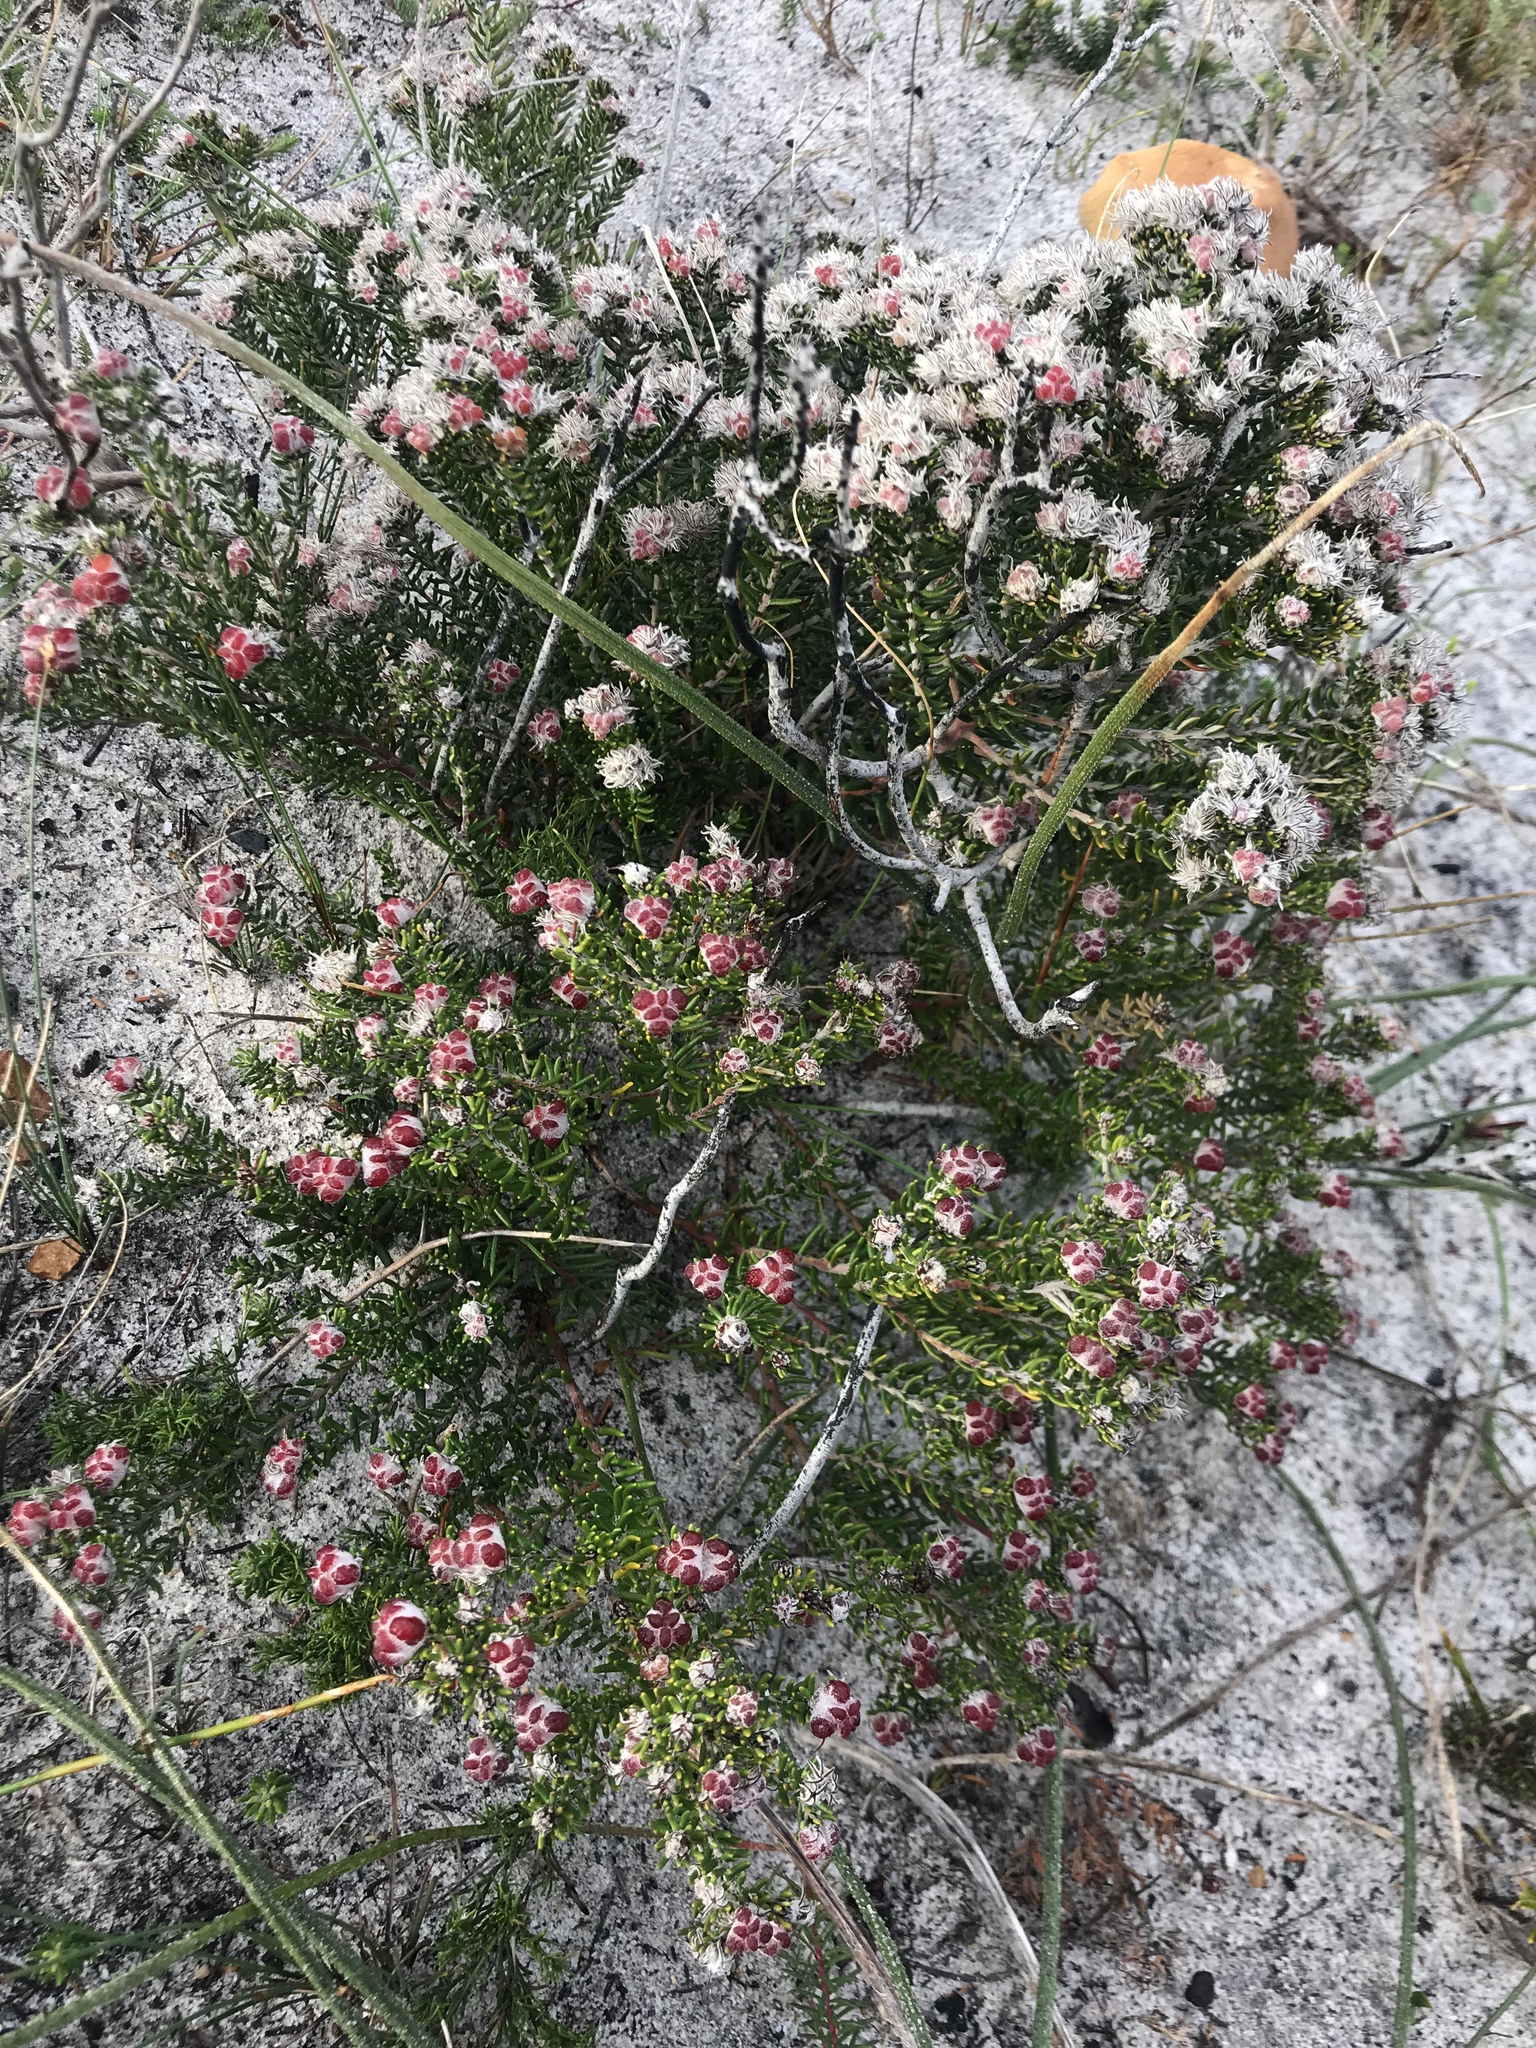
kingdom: Plantae
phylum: Tracheophyta
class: Magnoliopsida
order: Rosales
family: Rhamnaceae
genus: Trichocephalus
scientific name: Trichocephalus stipularis
